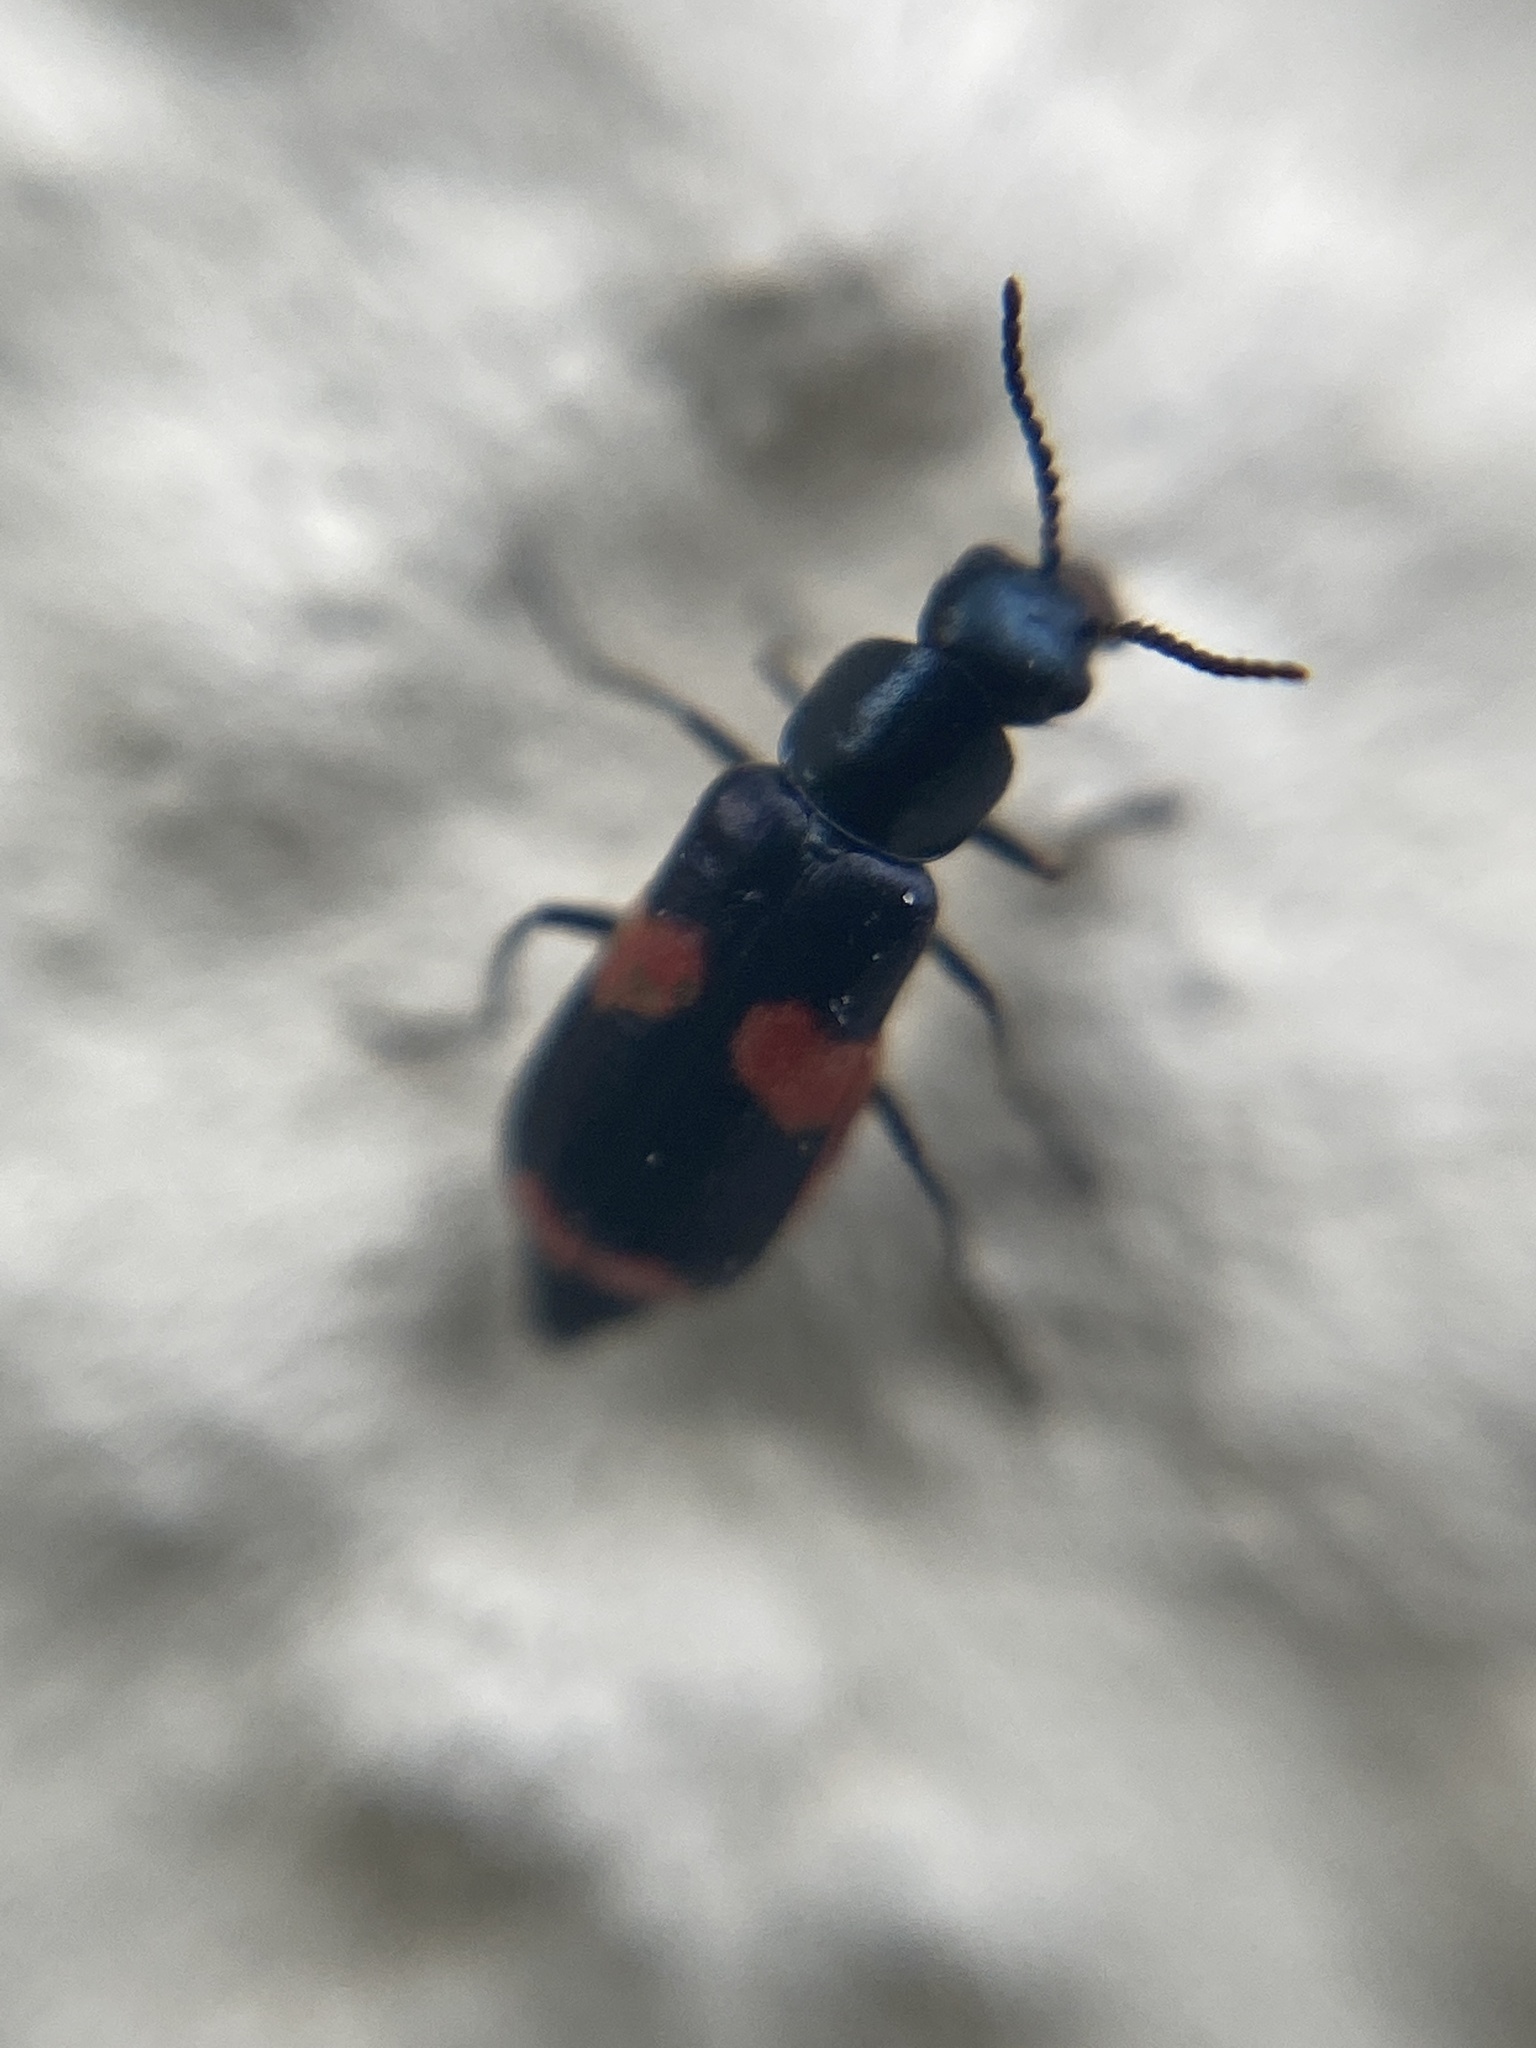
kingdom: Animalia
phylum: Arthropoda
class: Insecta
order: Coleoptera
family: Melyridae
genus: Anthocomus
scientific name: Anthocomus fasciatus
